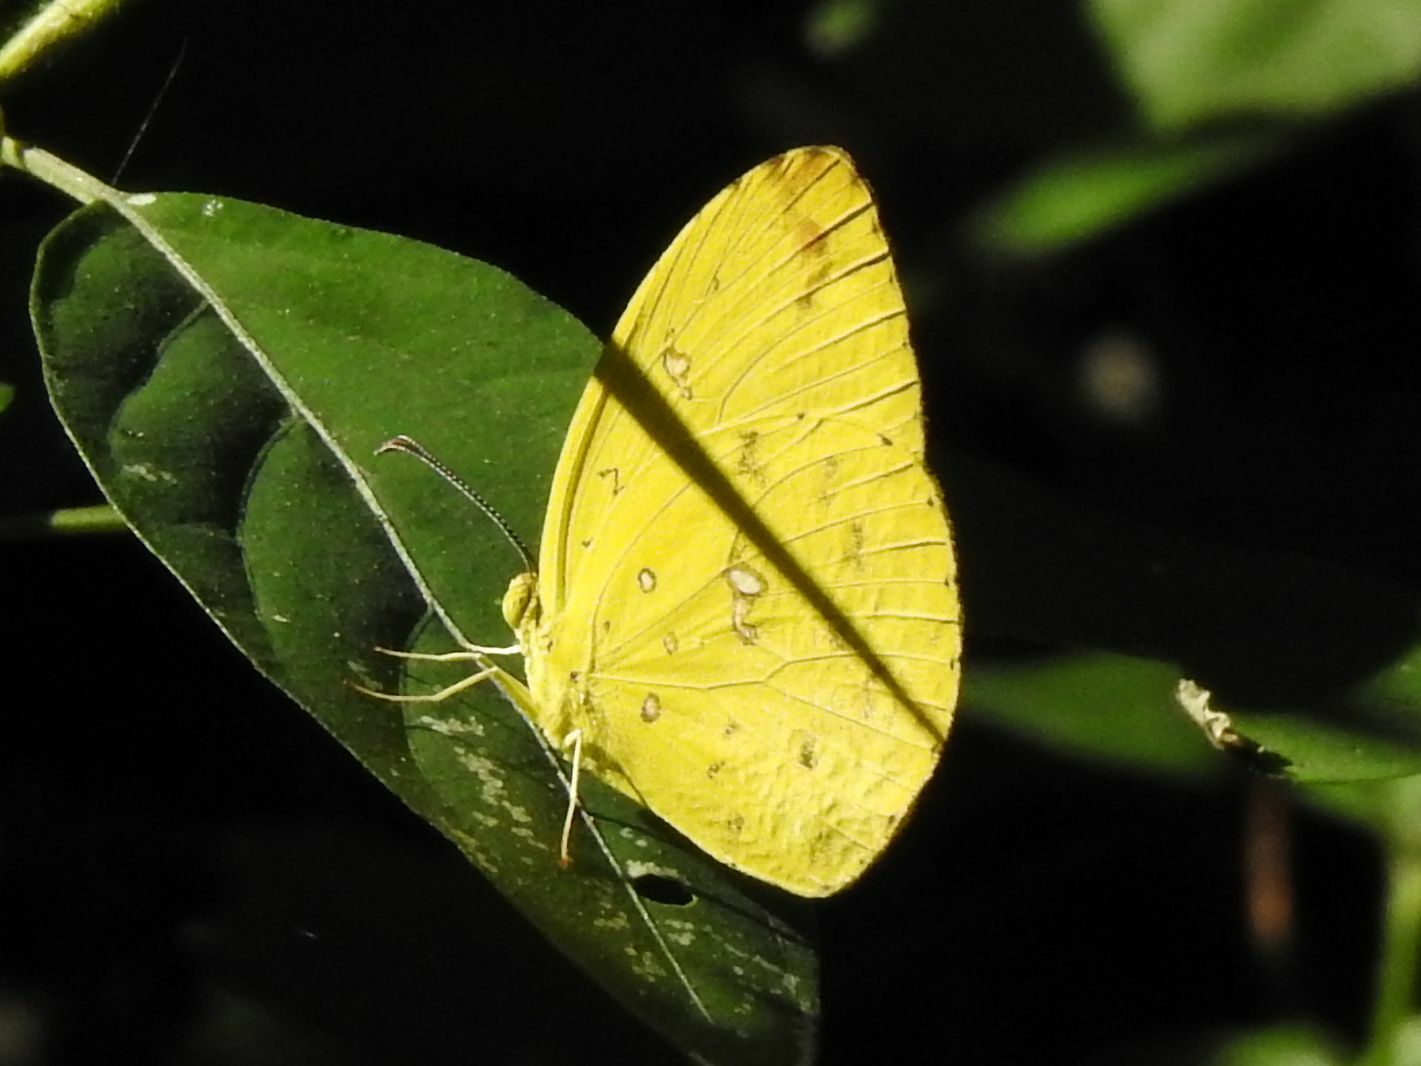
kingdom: Animalia
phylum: Arthropoda
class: Insecta
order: Lepidoptera
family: Pieridae
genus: Eurema
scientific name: Eurema floricola
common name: Malagasy grass yellow
